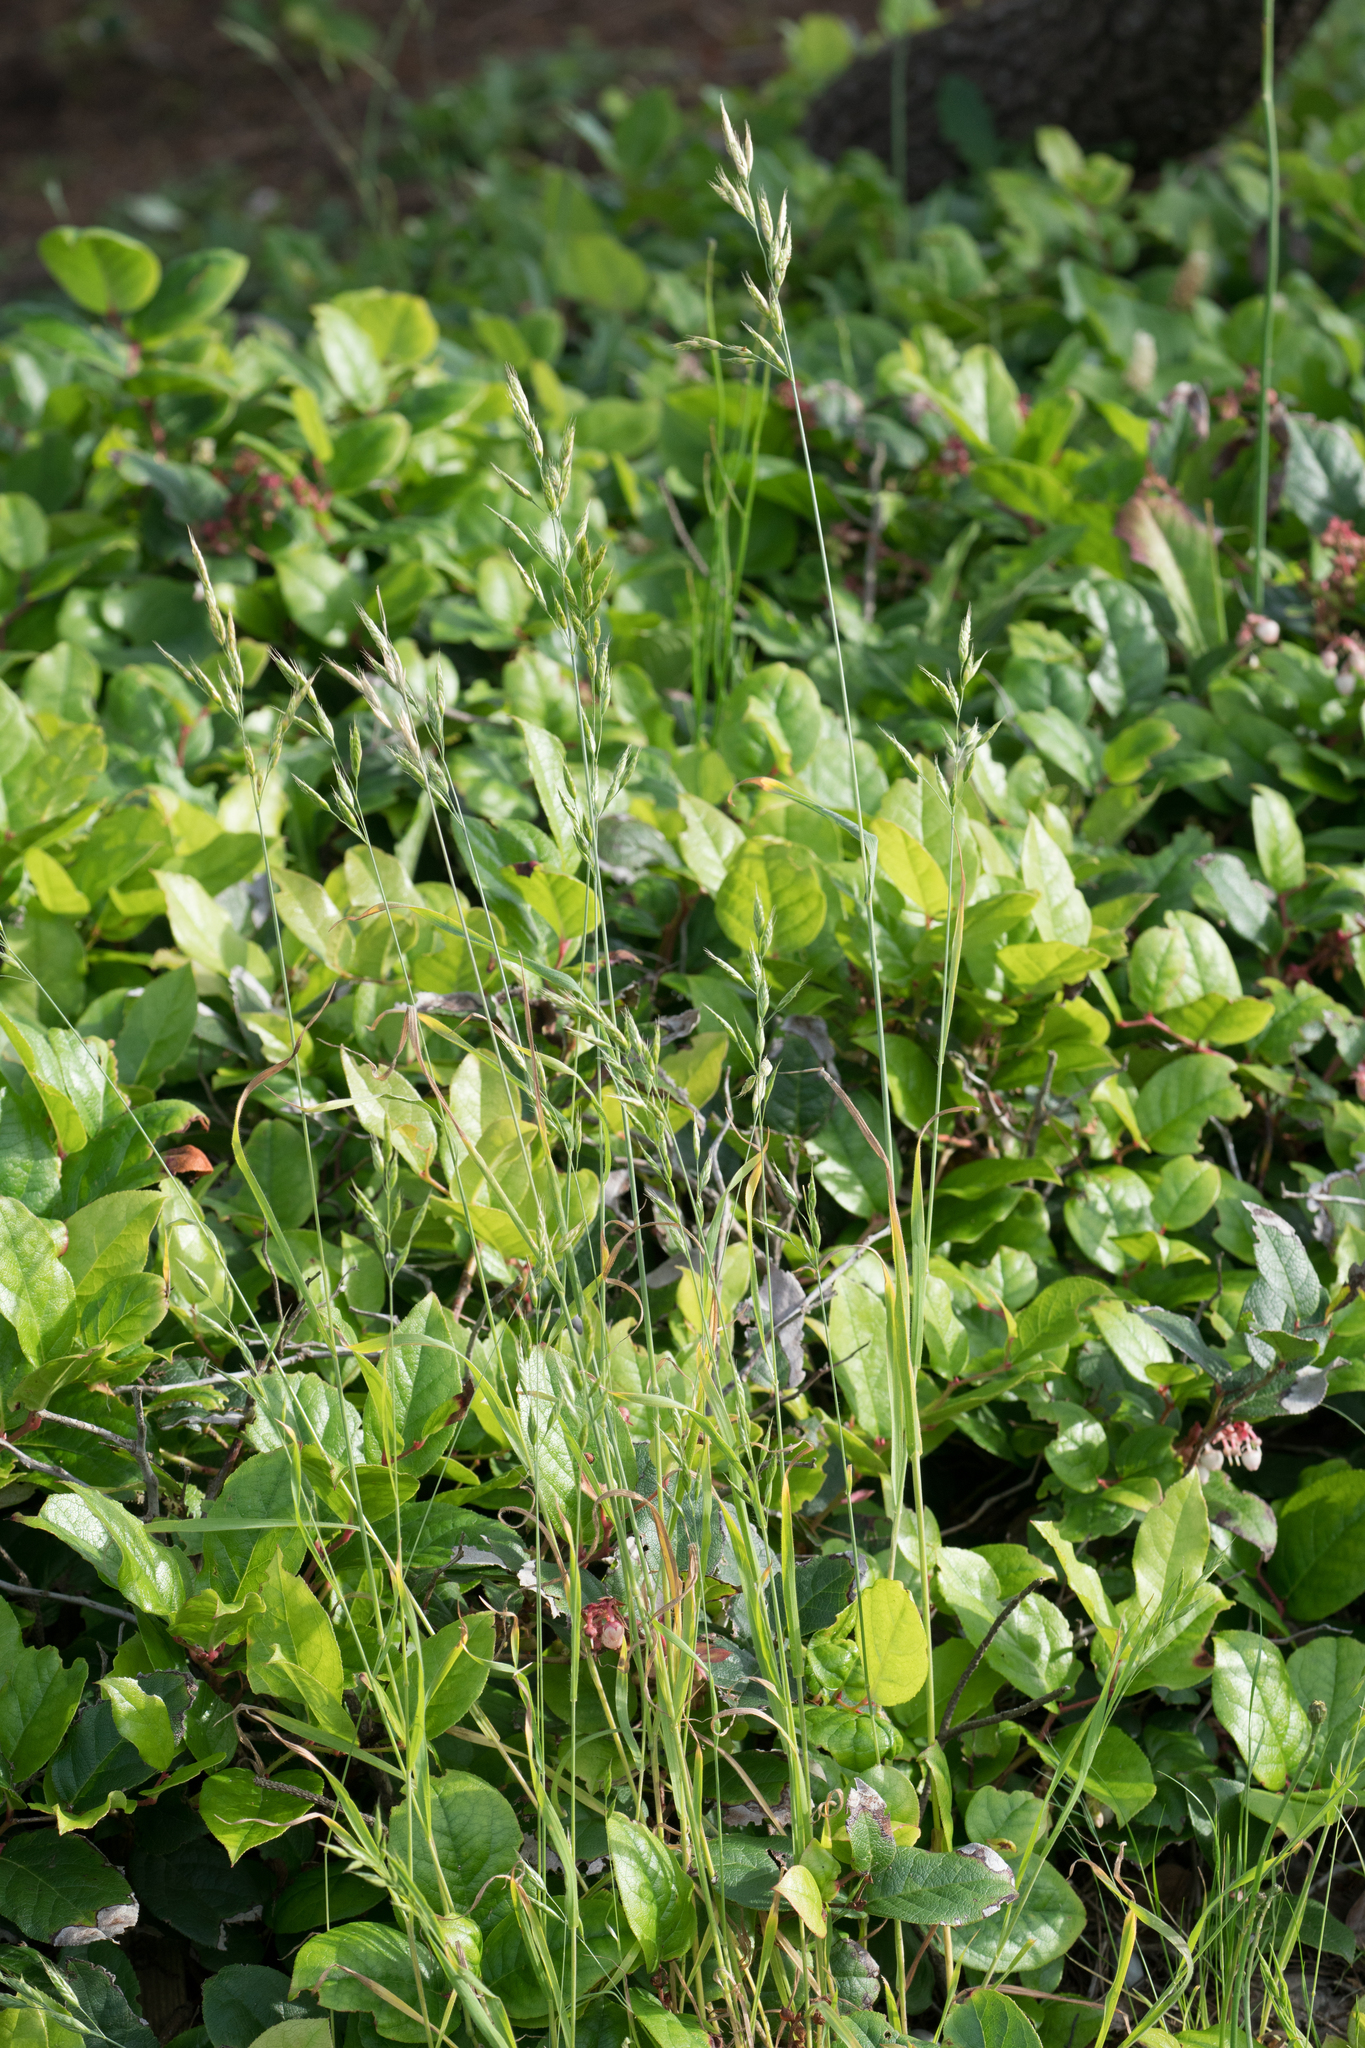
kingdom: Plantae
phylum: Tracheophyta
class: Liliopsida
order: Poales
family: Poaceae
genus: Bromus
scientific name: Bromus hordeaceus
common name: Soft brome
